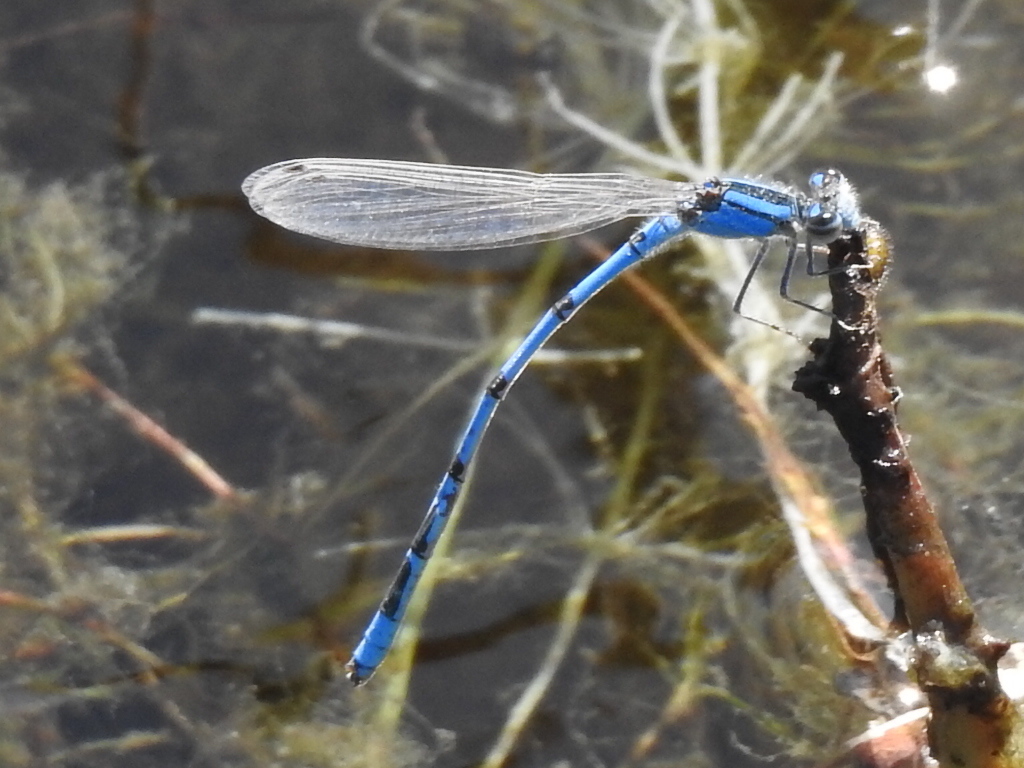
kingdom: Animalia
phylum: Arthropoda
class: Insecta
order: Odonata
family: Coenagrionidae
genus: Enallagma
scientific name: Enallagma civile
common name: Damselfly
